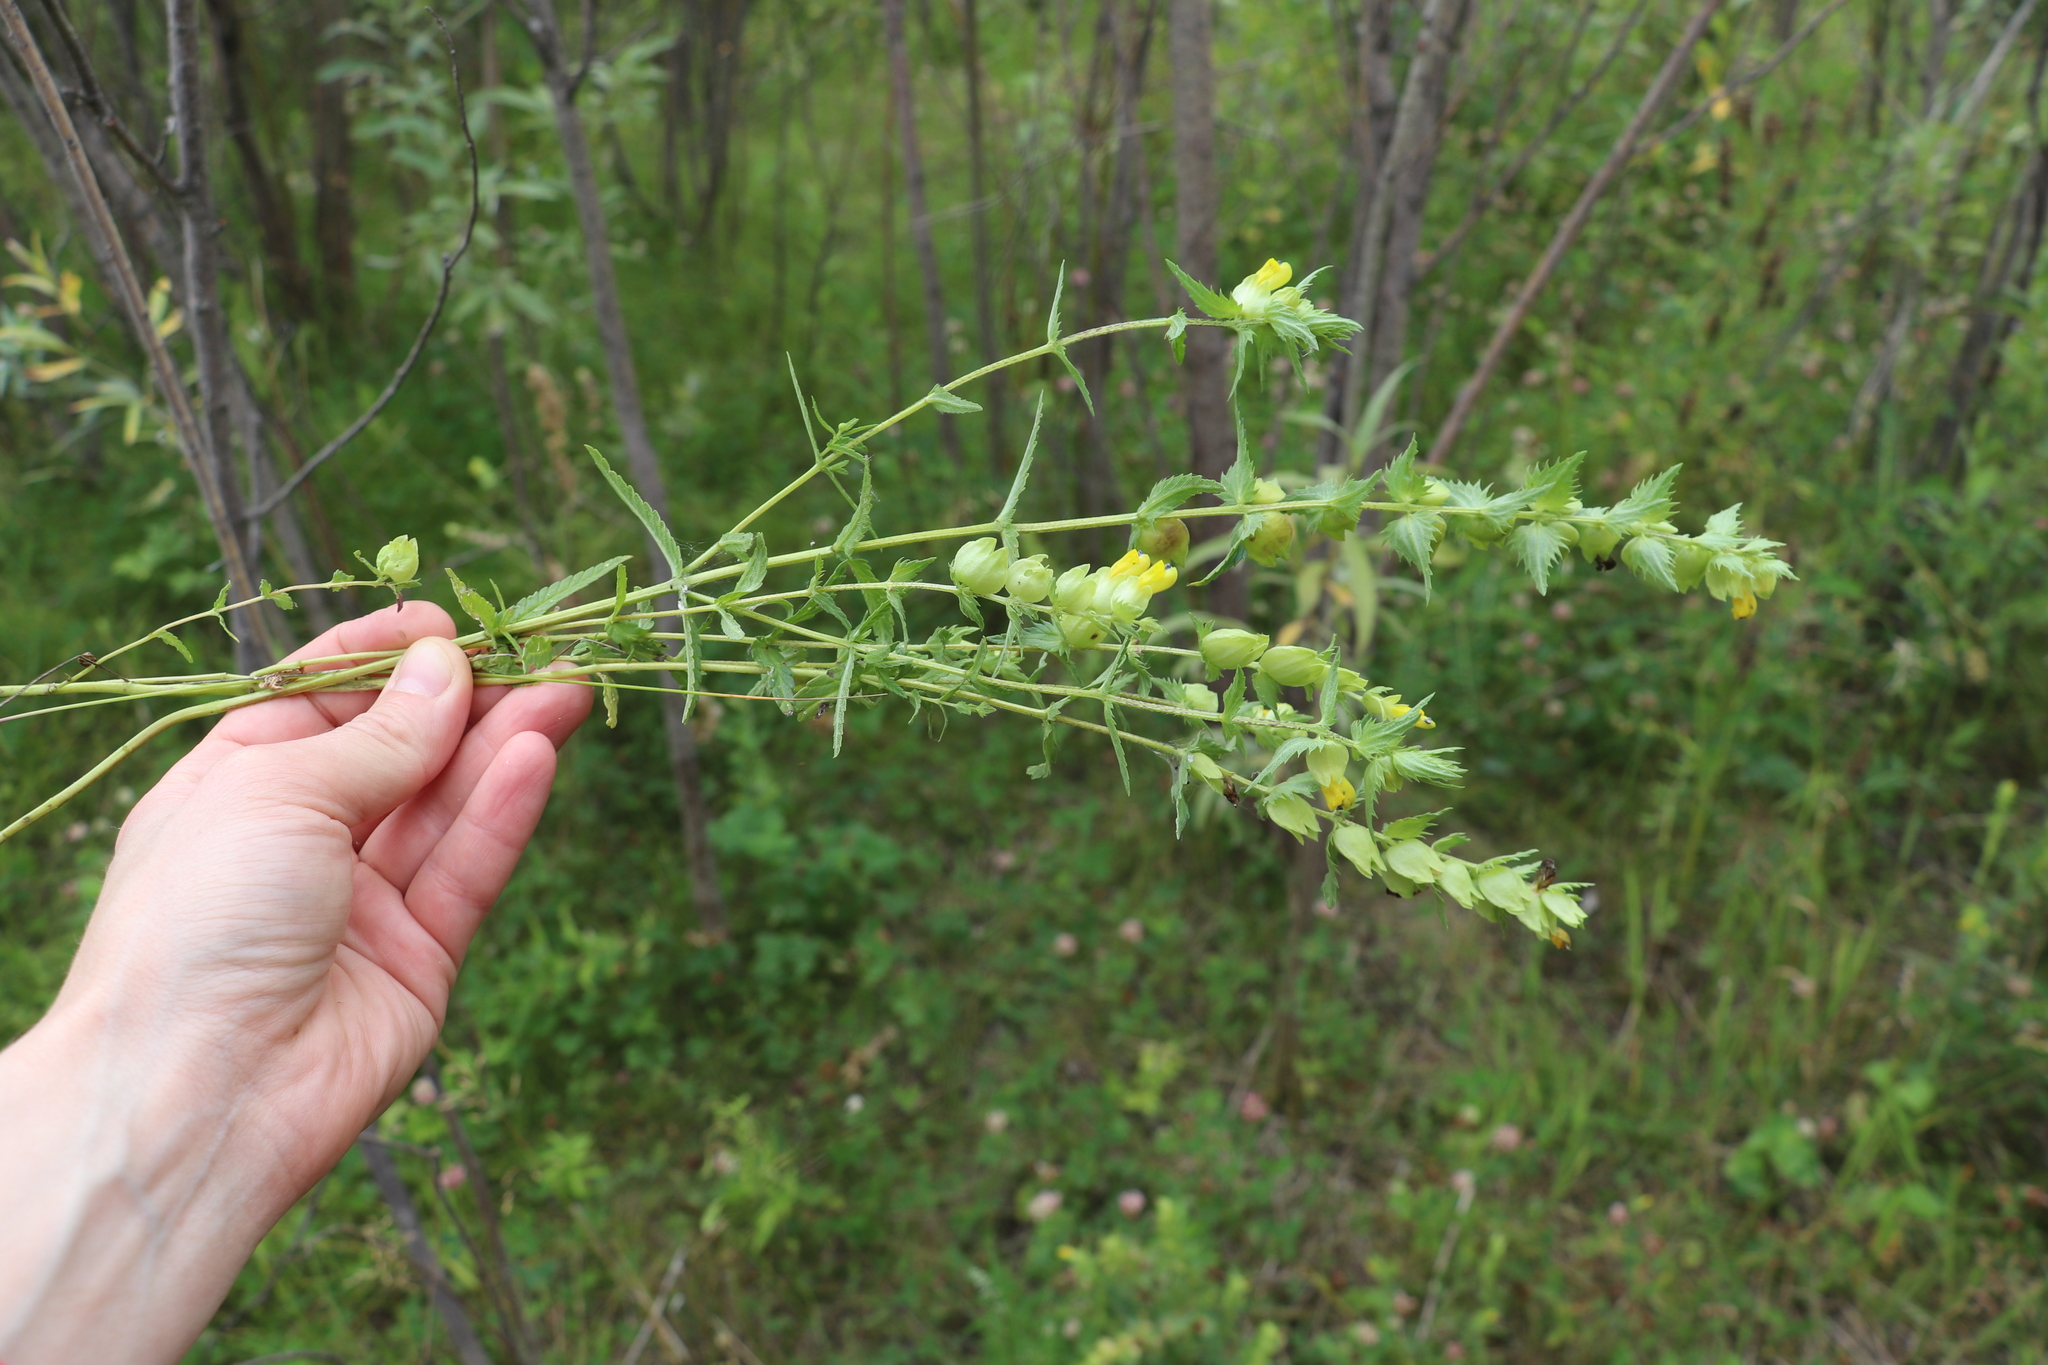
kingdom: Plantae
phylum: Tracheophyta
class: Magnoliopsida
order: Lamiales
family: Orobanchaceae
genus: Rhinanthus
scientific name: Rhinanthus minor
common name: Yellow-rattle
